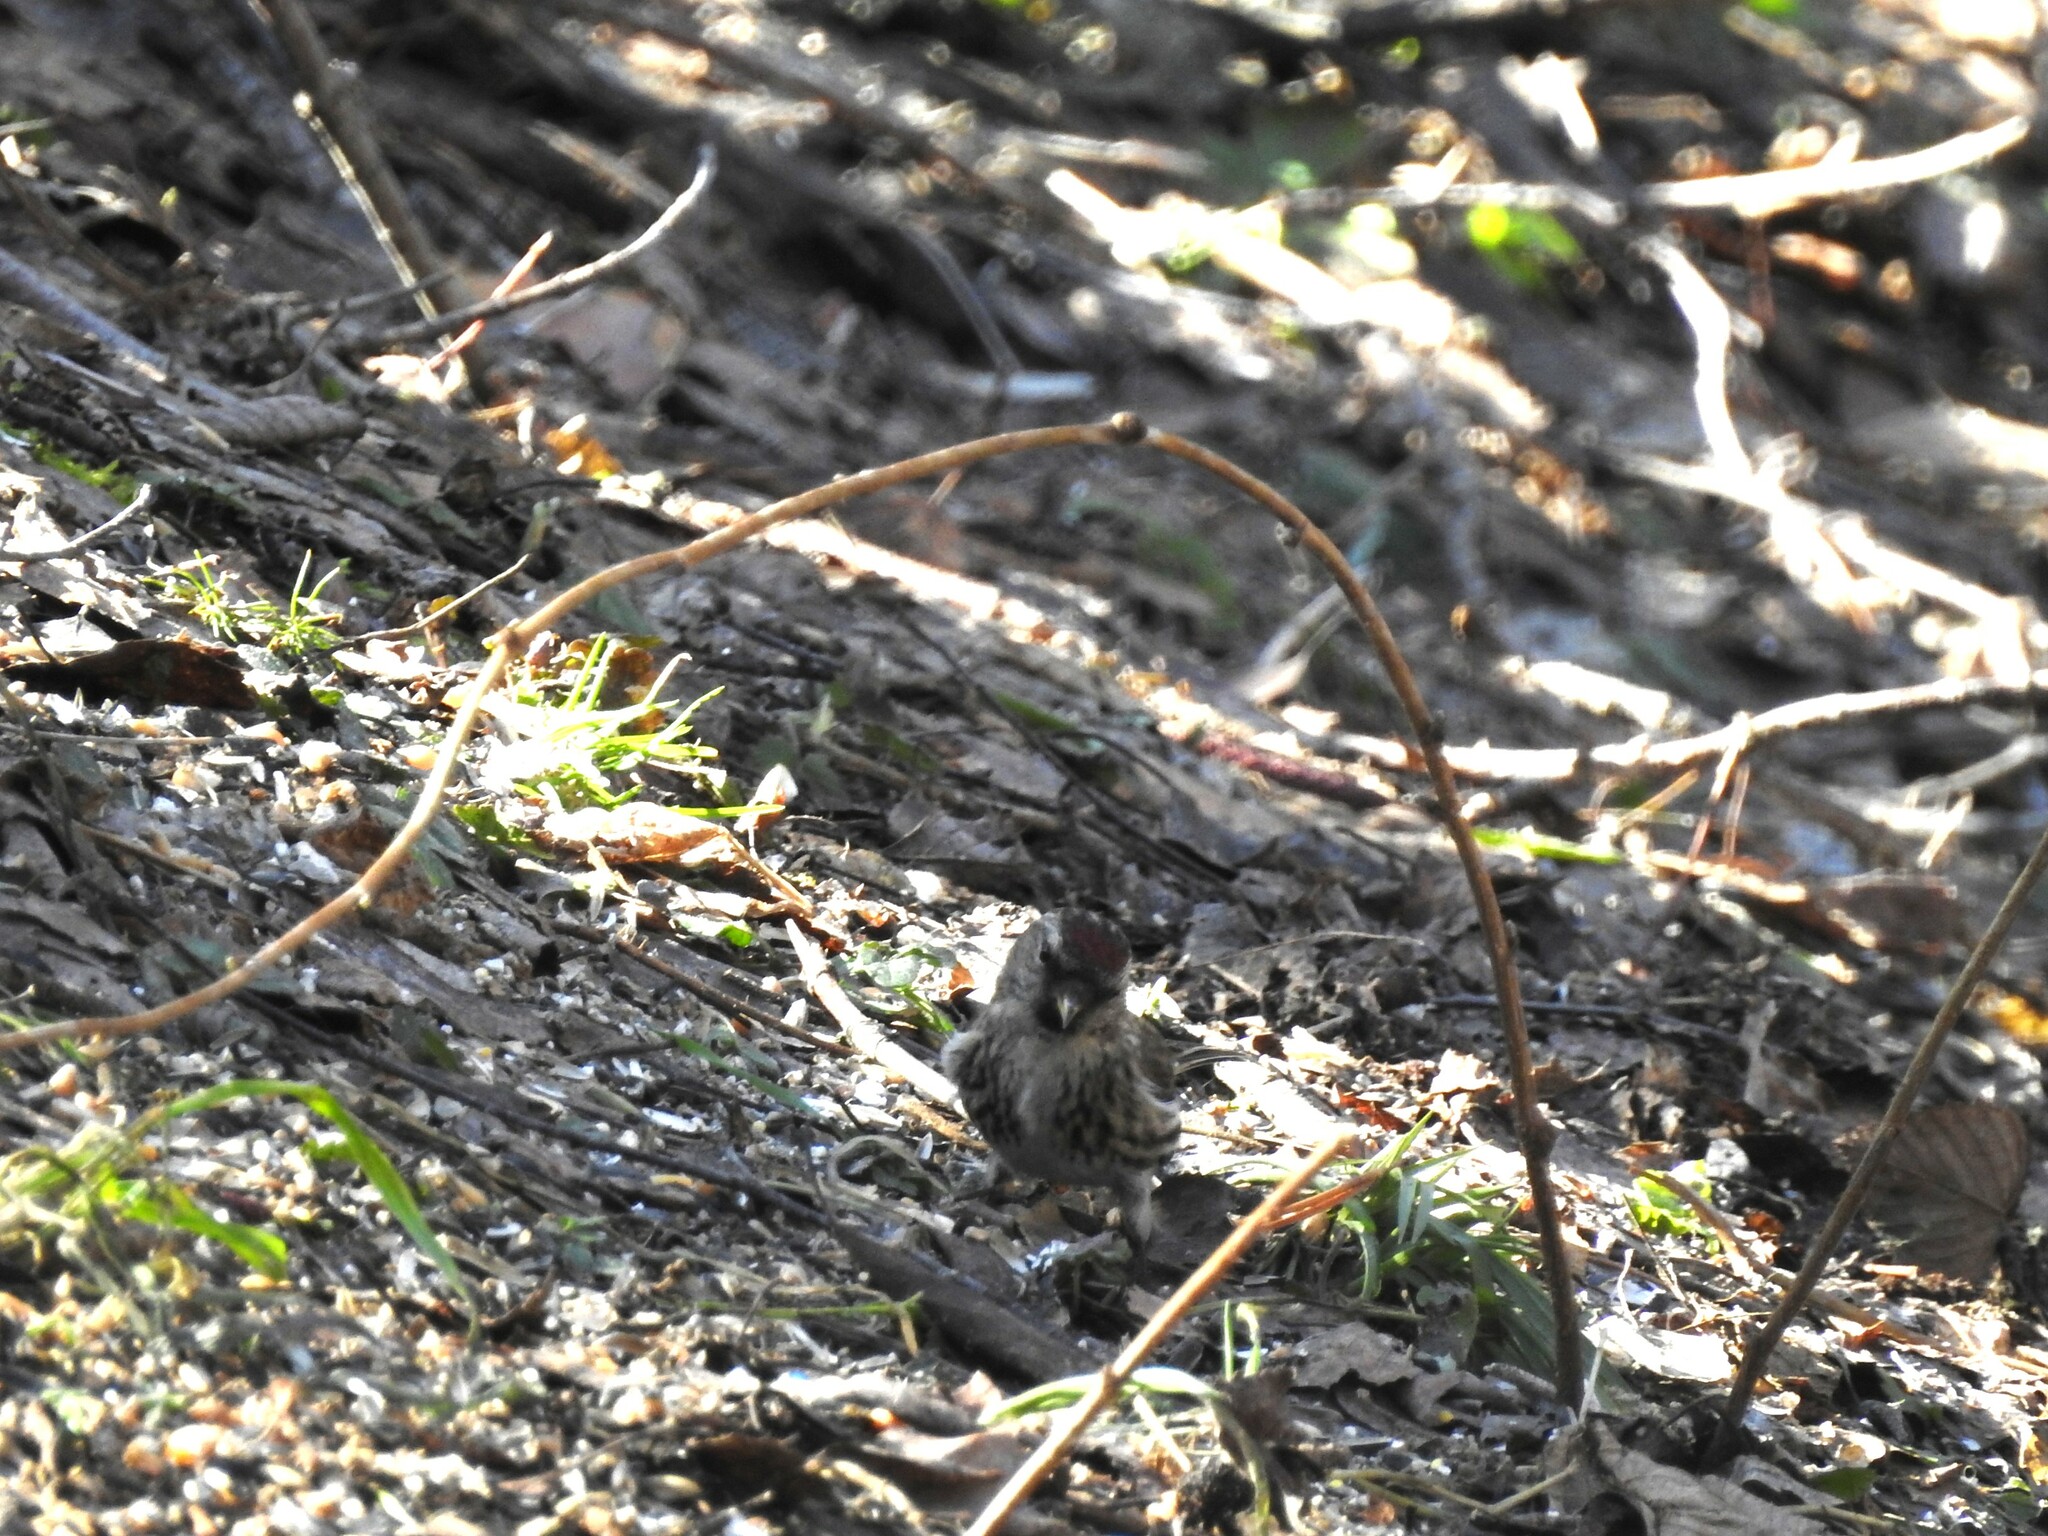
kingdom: Animalia
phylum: Chordata
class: Aves
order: Passeriformes
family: Fringillidae
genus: Acanthis
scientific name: Acanthis flammea
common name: Common redpoll
